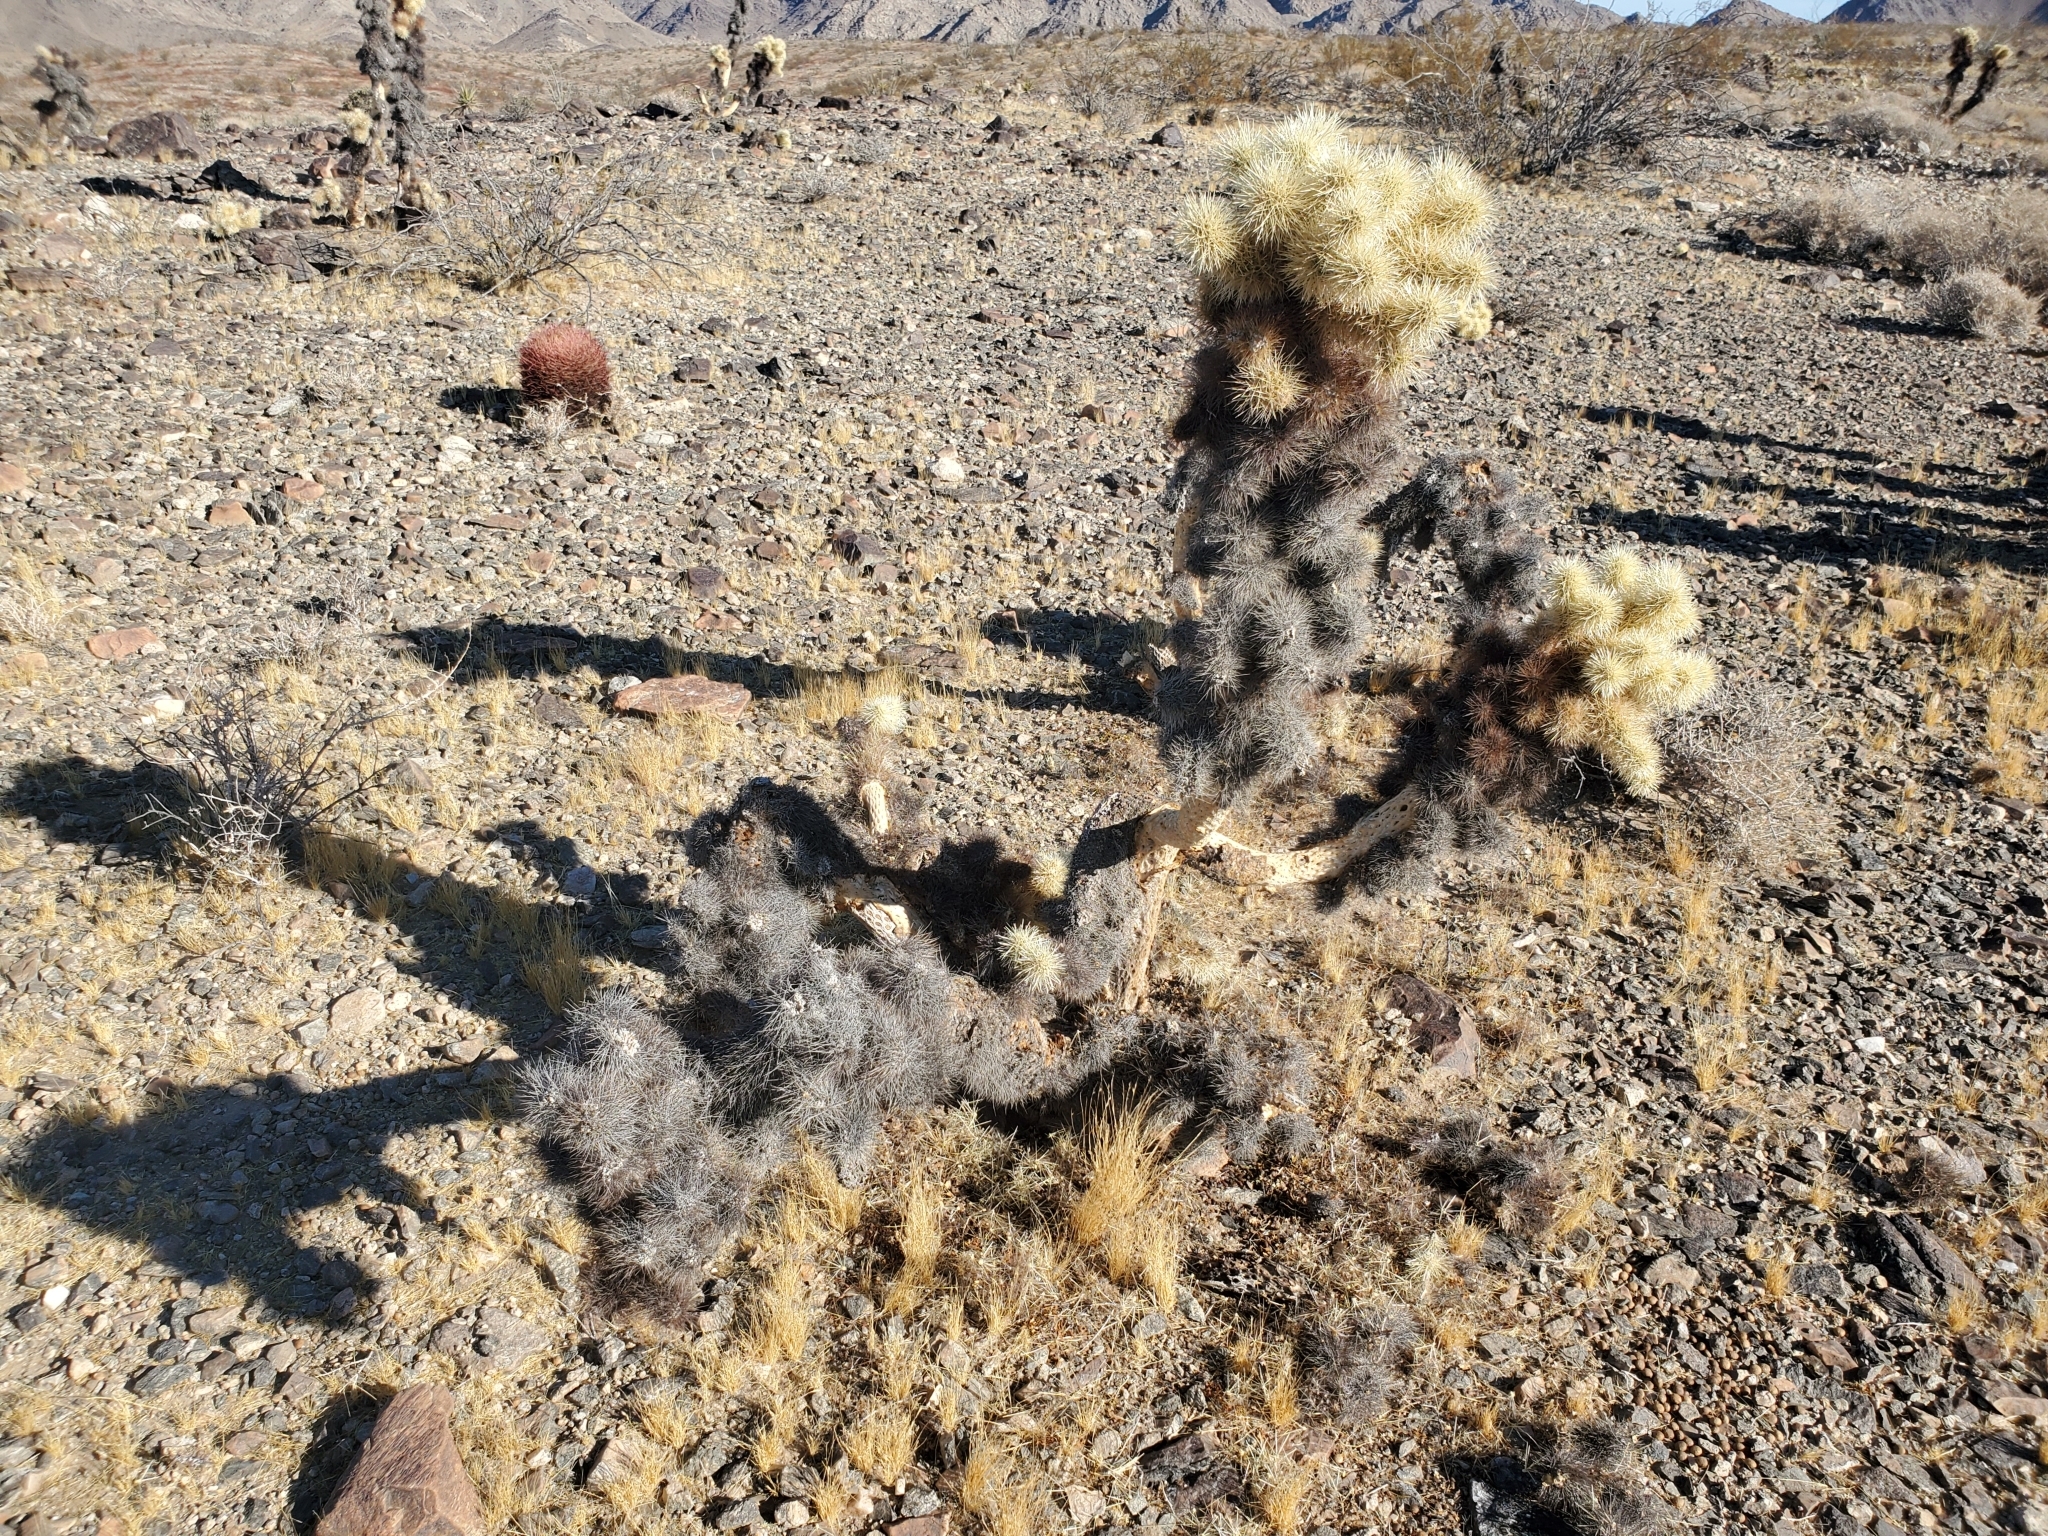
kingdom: Plantae
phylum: Tracheophyta
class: Magnoliopsida
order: Caryophyllales
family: Cactaceae
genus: Cylindropuntia
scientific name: Cylindropuntia fosbergii
